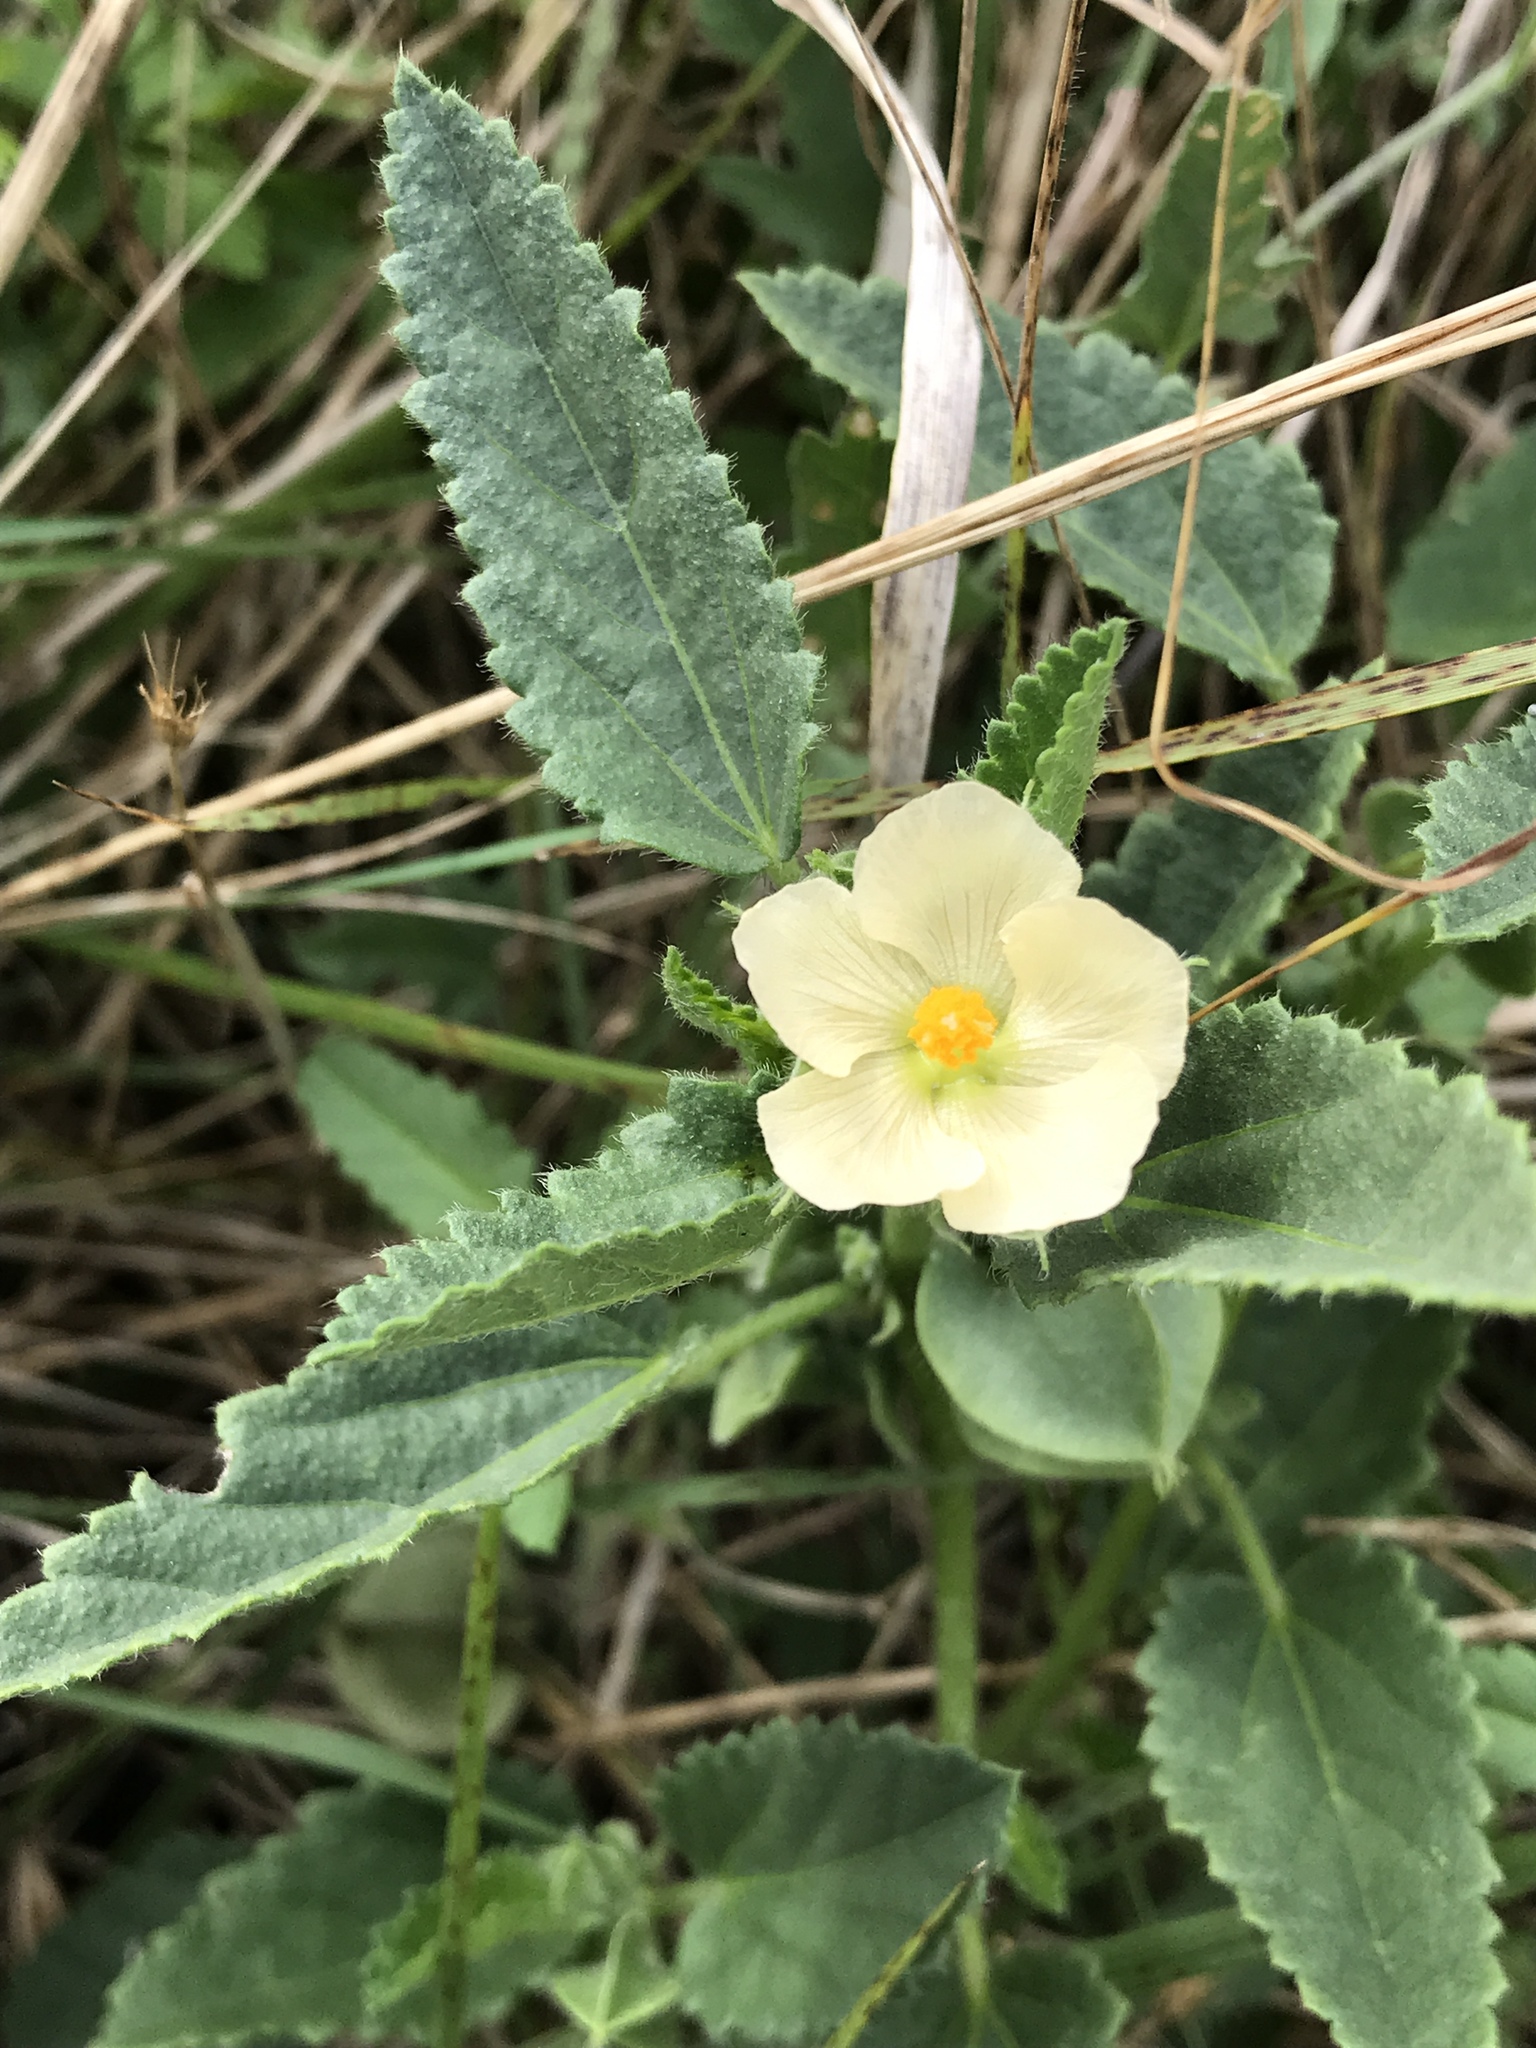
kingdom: Plantae
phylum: Tracheophyta
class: Magnoliopsida
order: Malvales
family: Malvaceae
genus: Rhynchosida
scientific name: Rhynchosida physocalyx
